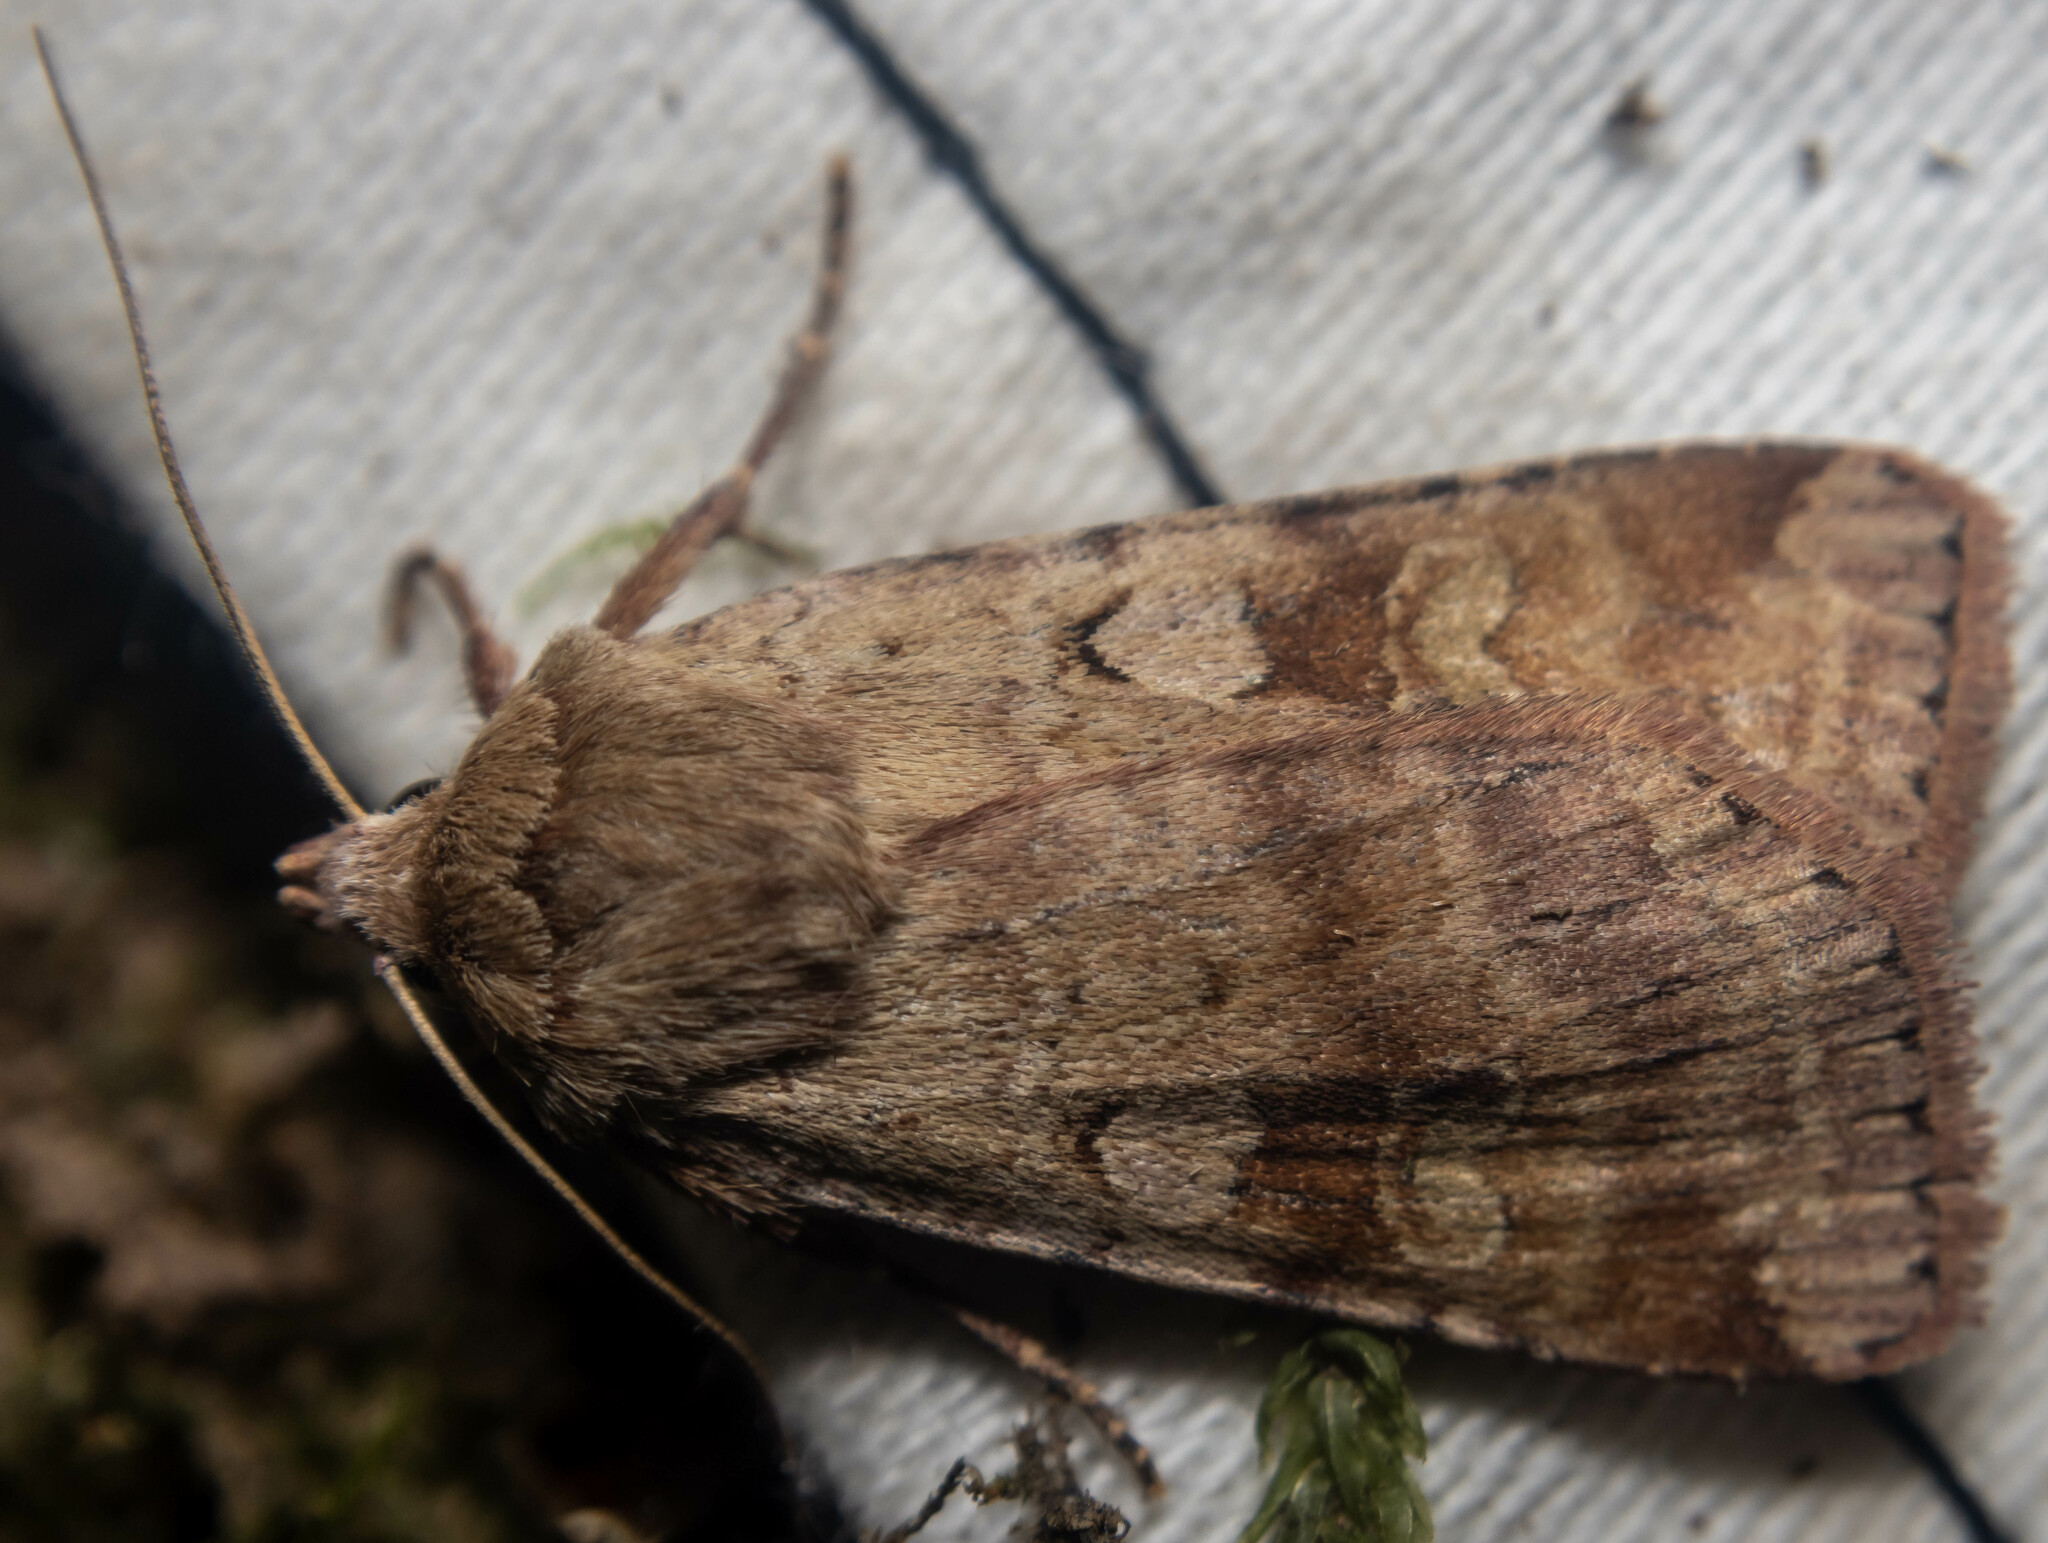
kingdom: Animalia
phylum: Arthropoda
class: Insecta
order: Lepidoptera
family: Noctuidae
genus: Diarsia
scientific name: Diarsia mendica
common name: Ingrailed clay
